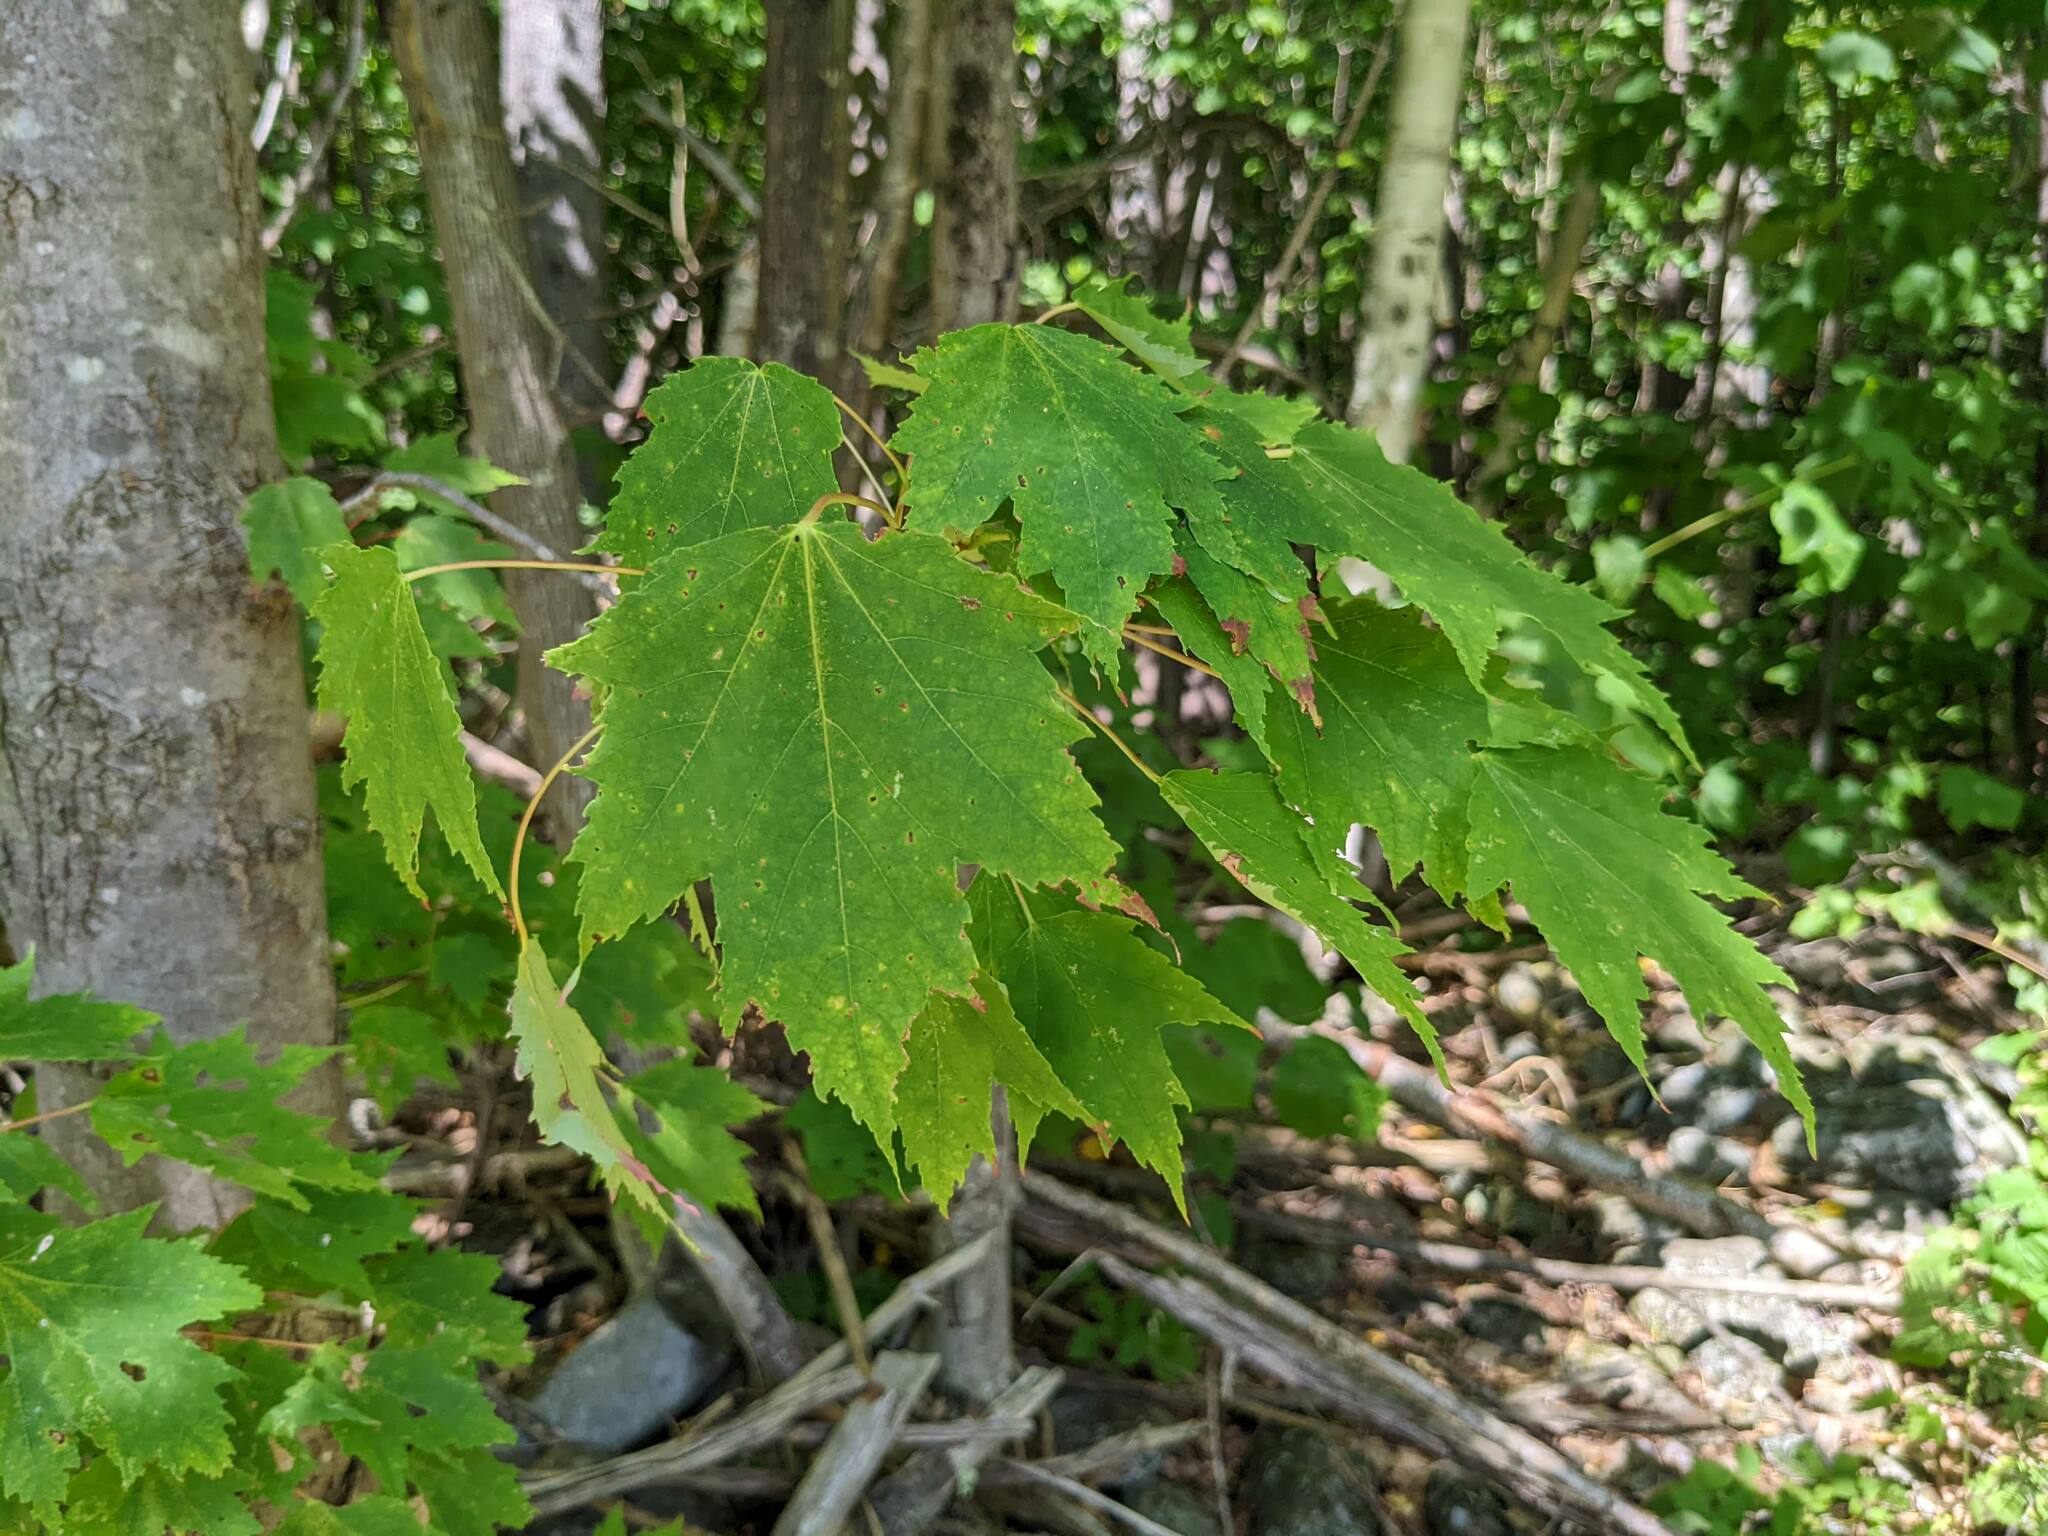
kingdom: Plantae
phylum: Tracheophyta
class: Magnoliopsida
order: Sapindales
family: Sapindaceae
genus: Acer
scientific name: Acer rubrum
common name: Red maple
